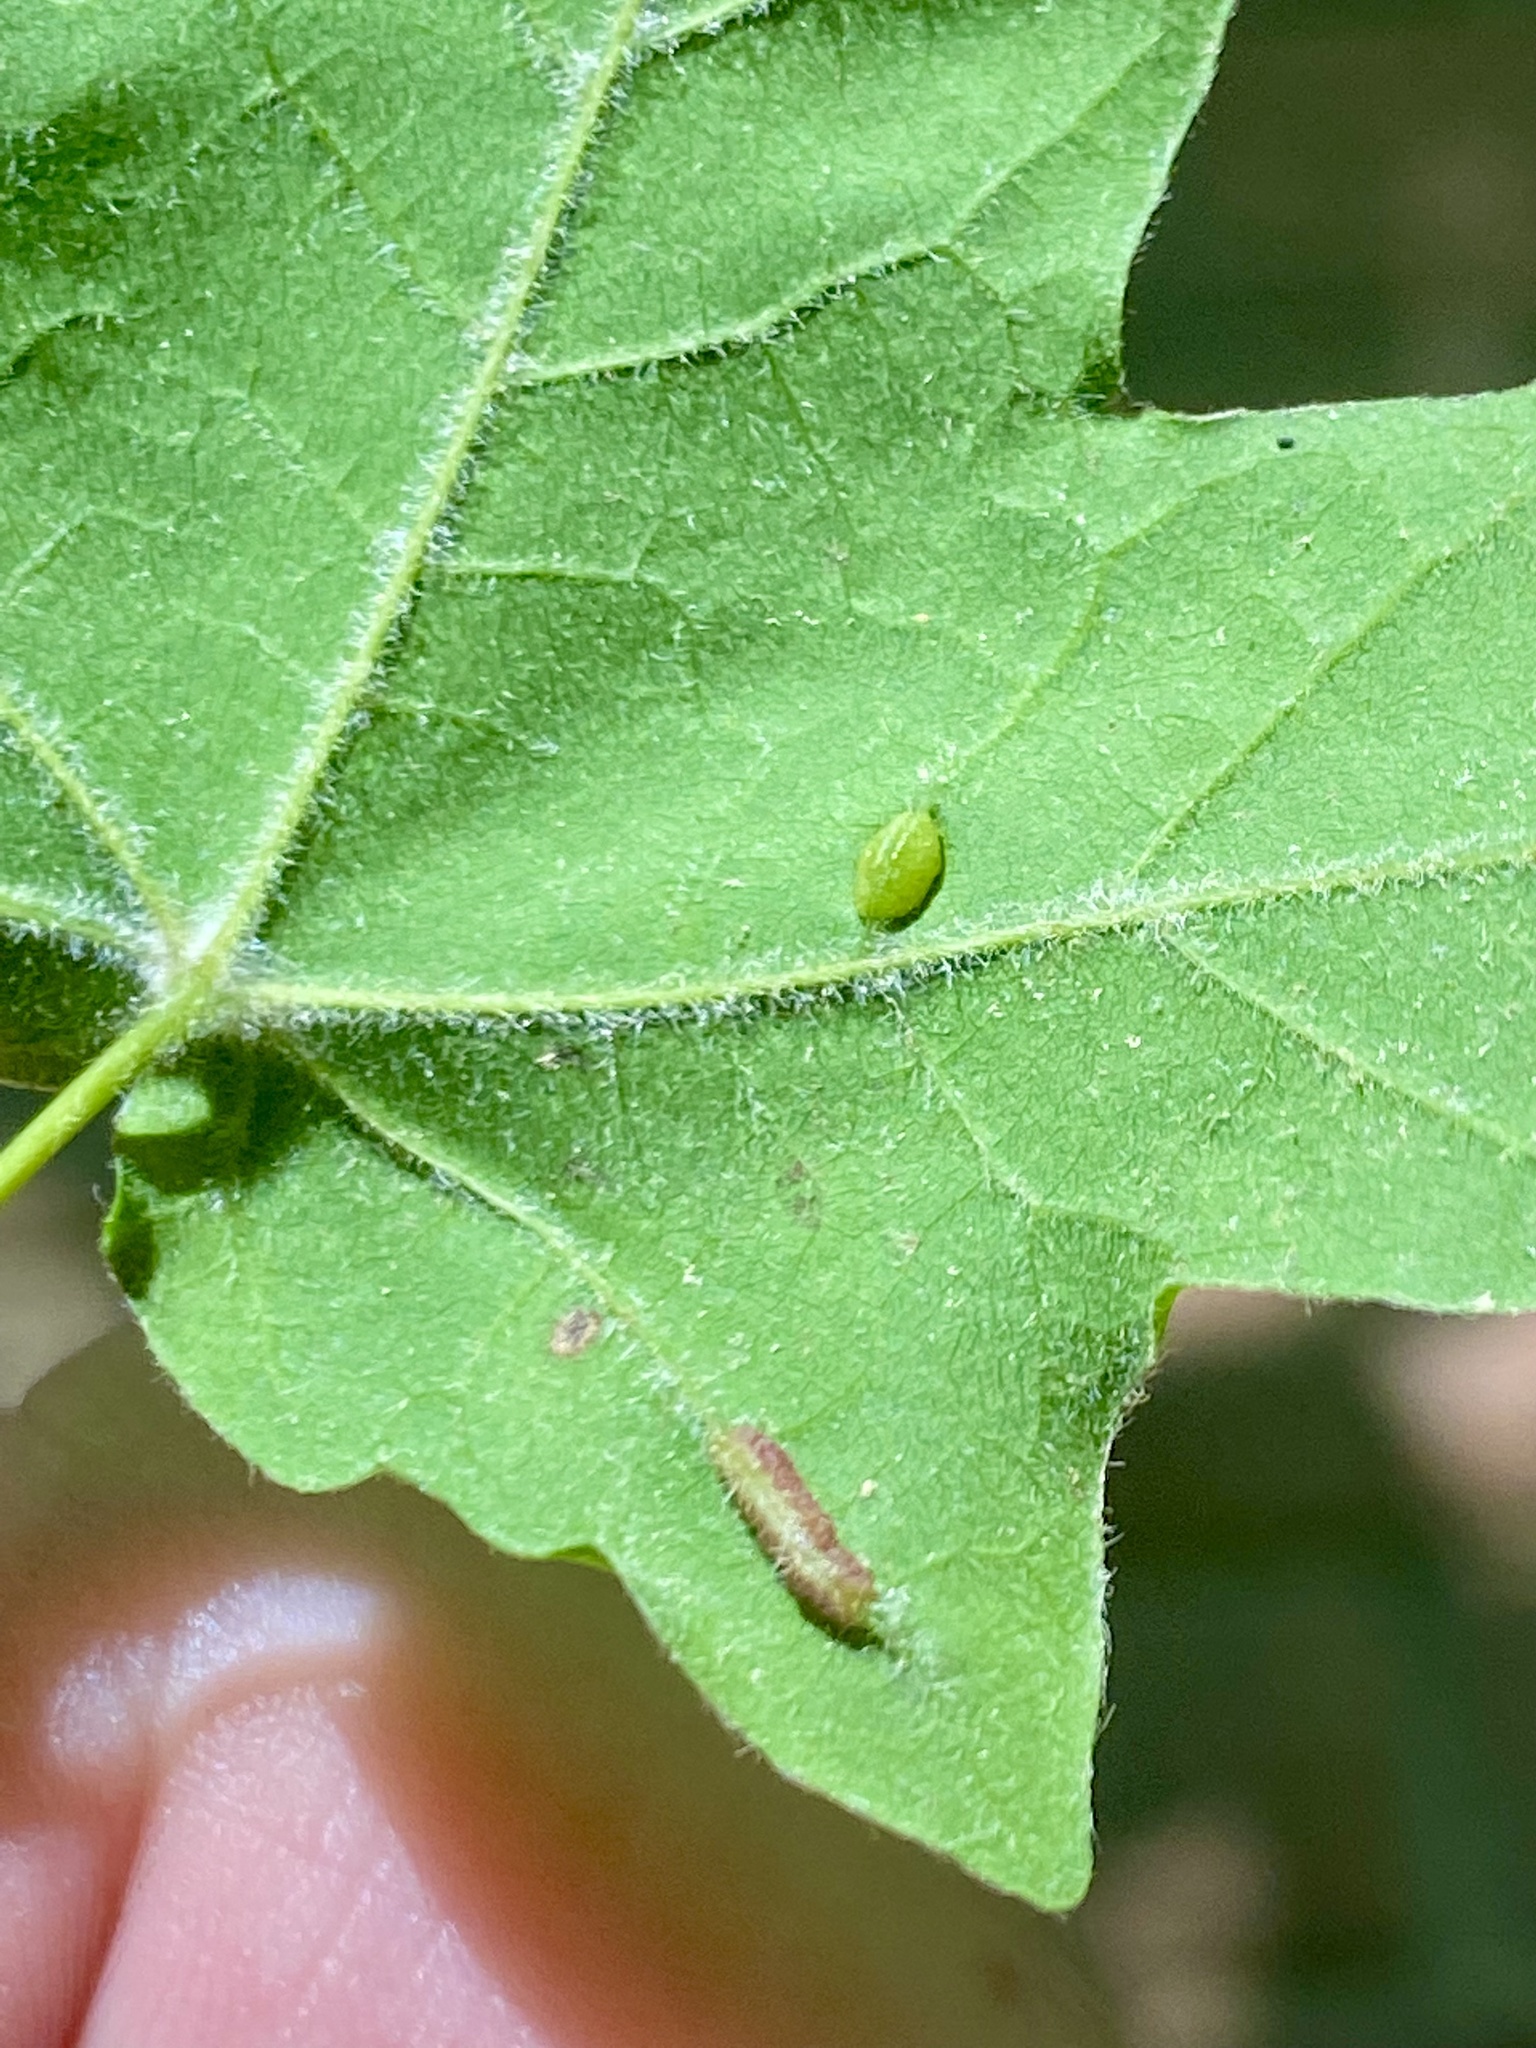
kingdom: Animalia
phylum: Arthropoda
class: Insecta
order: Diptera
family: Cecidomyiidae
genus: Dasineura
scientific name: Dasineura communis
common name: Gouty vein midge
